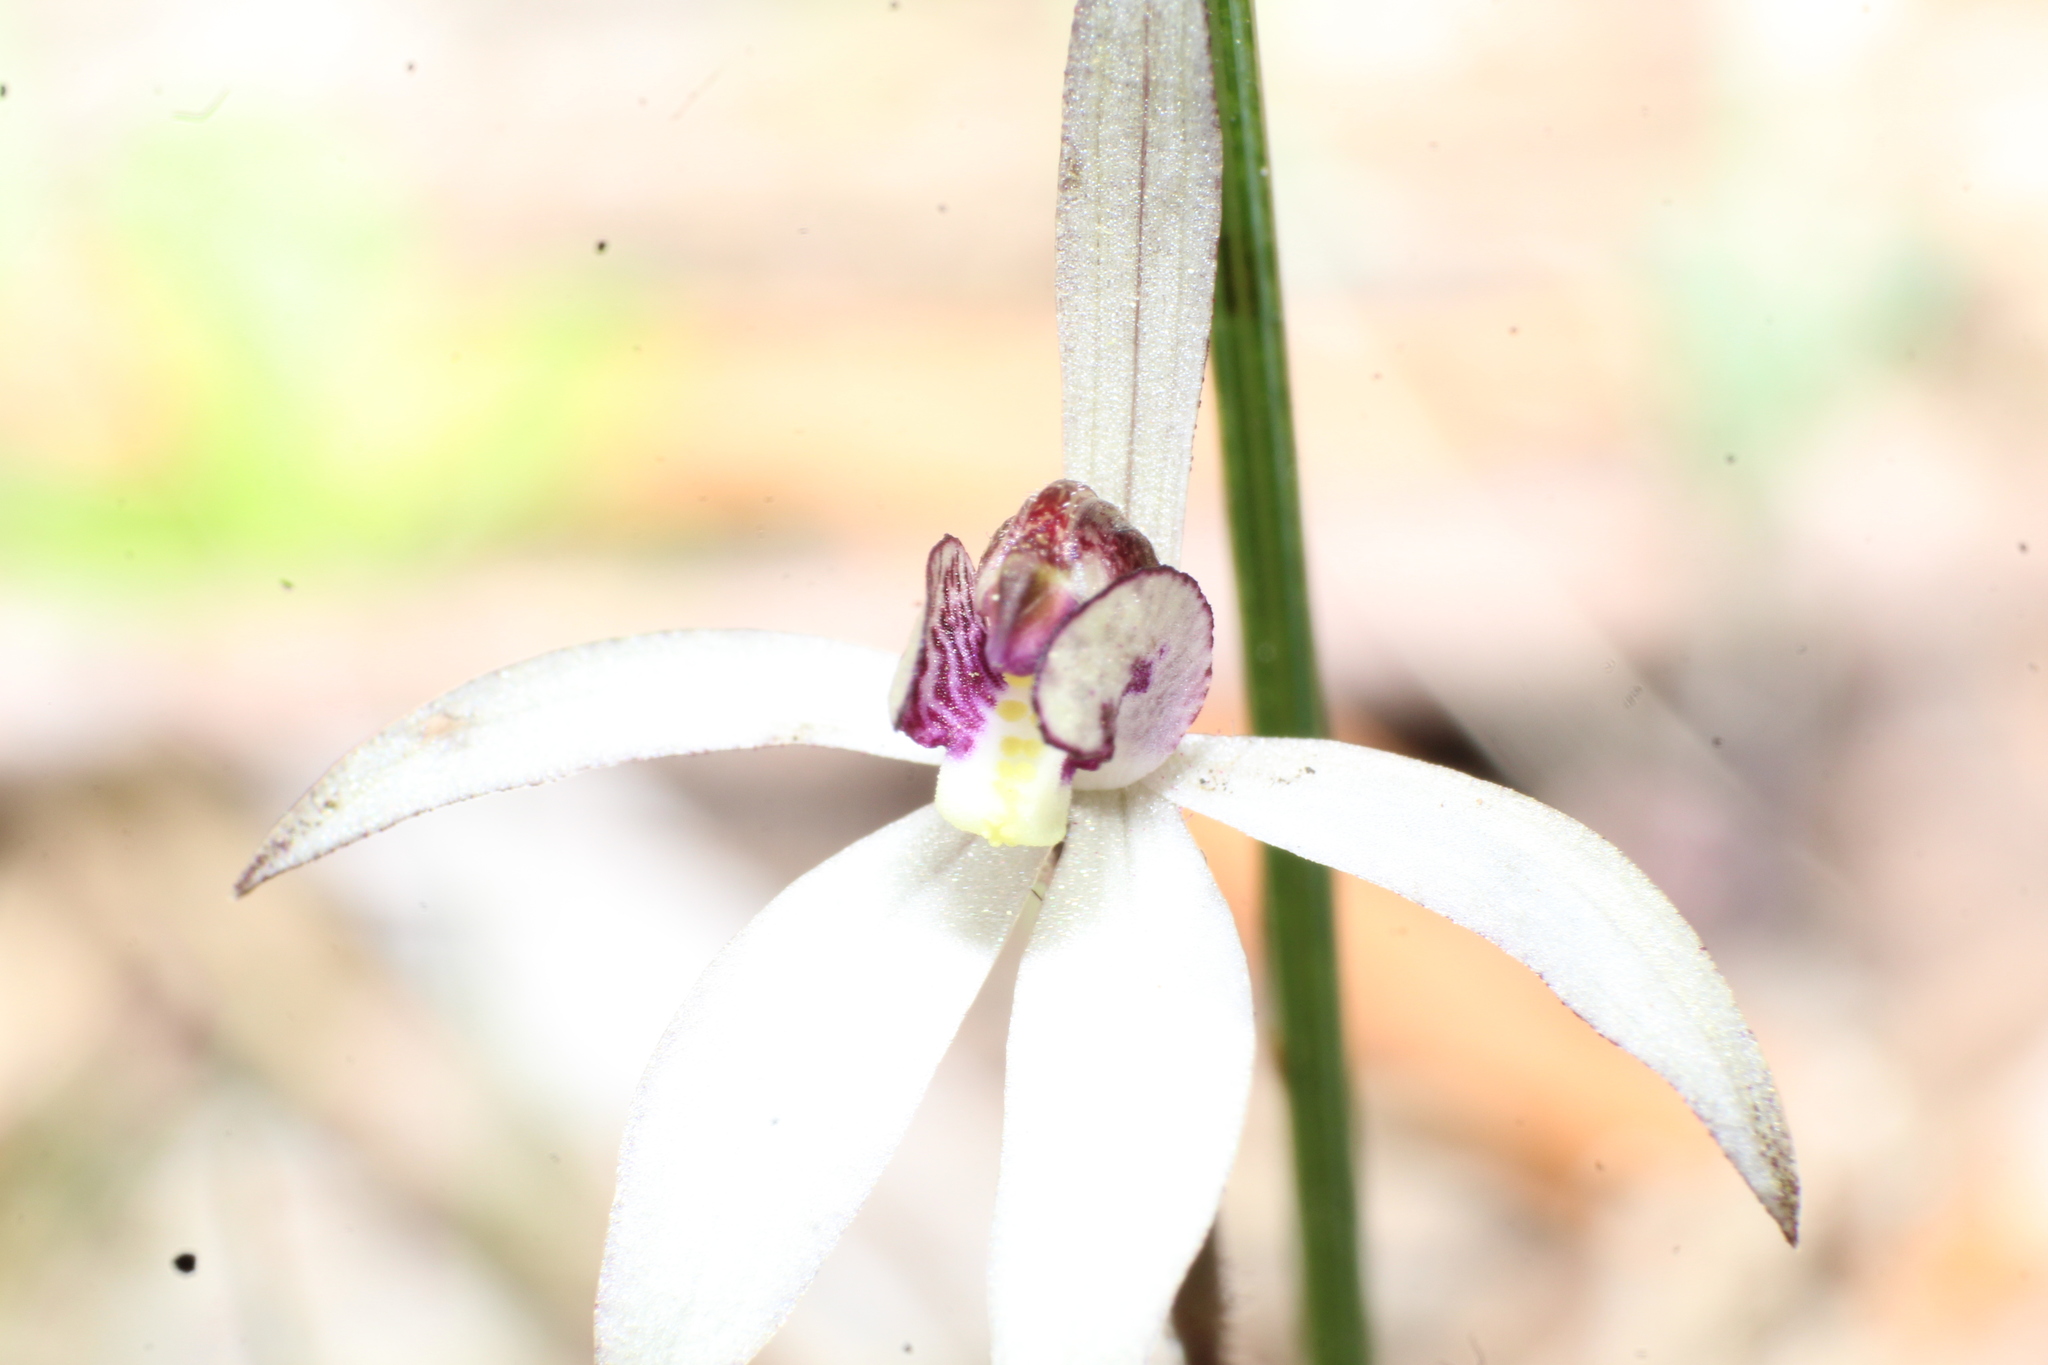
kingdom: Plantae
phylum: Tracheophyta
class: Liliopsida
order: Asparagales
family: Orchidaceae
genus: Caladenia
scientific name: Caladenia saccharata
